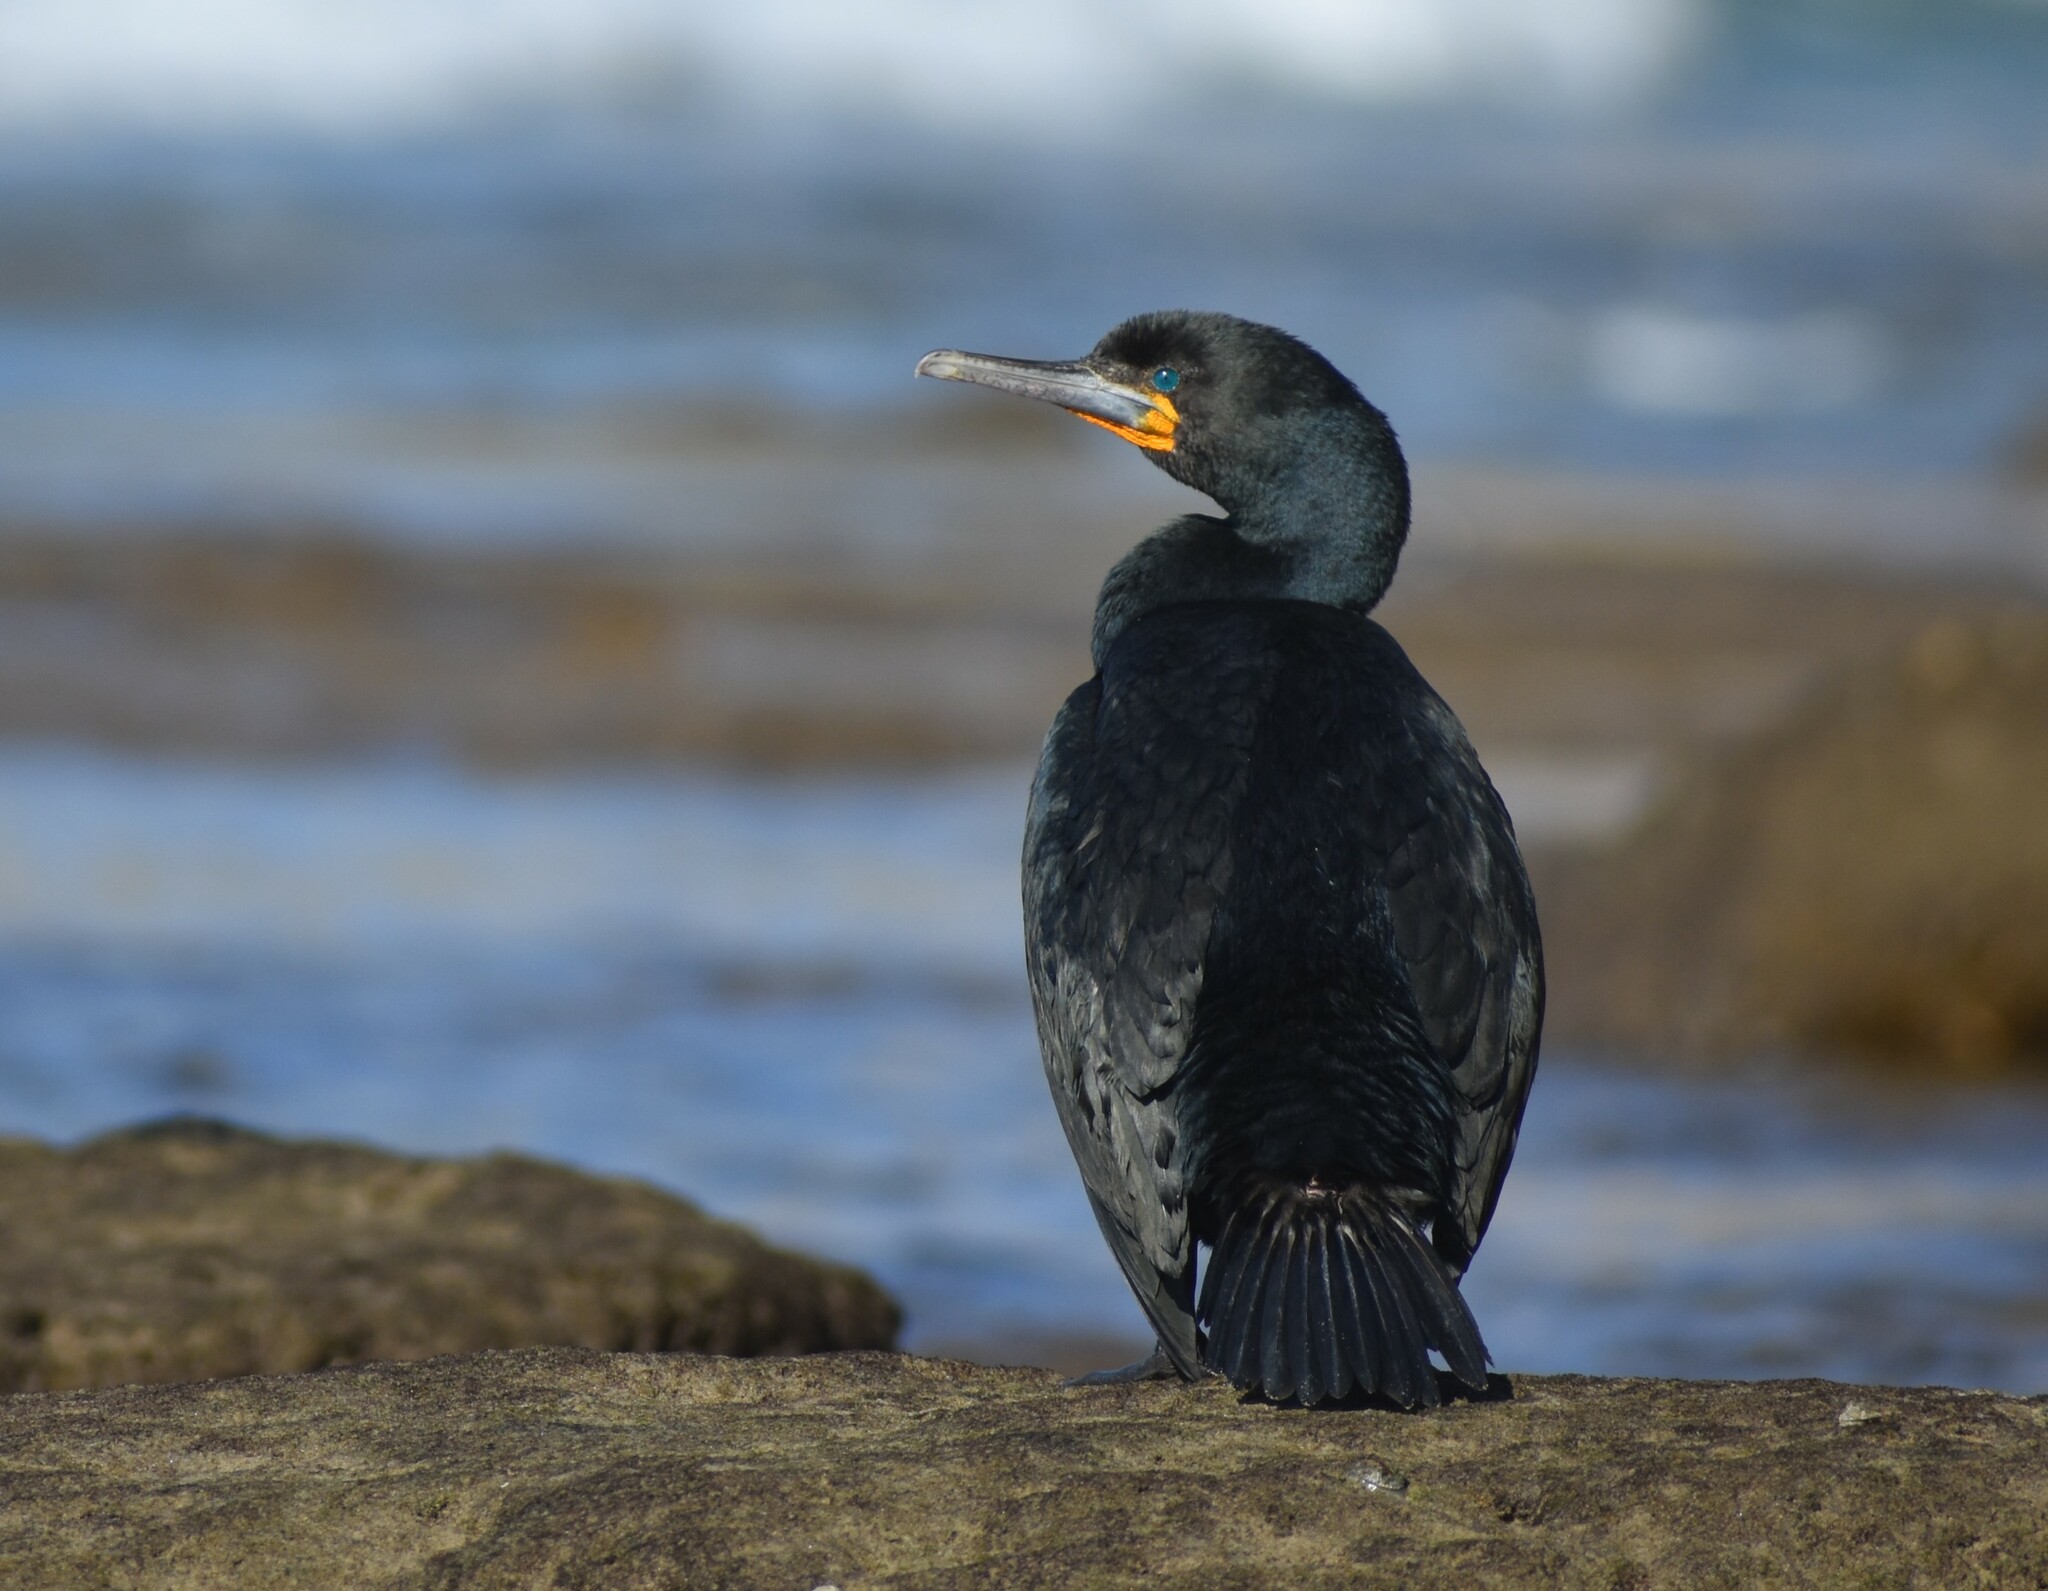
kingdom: Animalia
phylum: Chordata
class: Aves
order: Suliformes
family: Phalacrocoracidae
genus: Phalacrocorax
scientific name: Phalacrocorax capensis
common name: Cape cormorant
